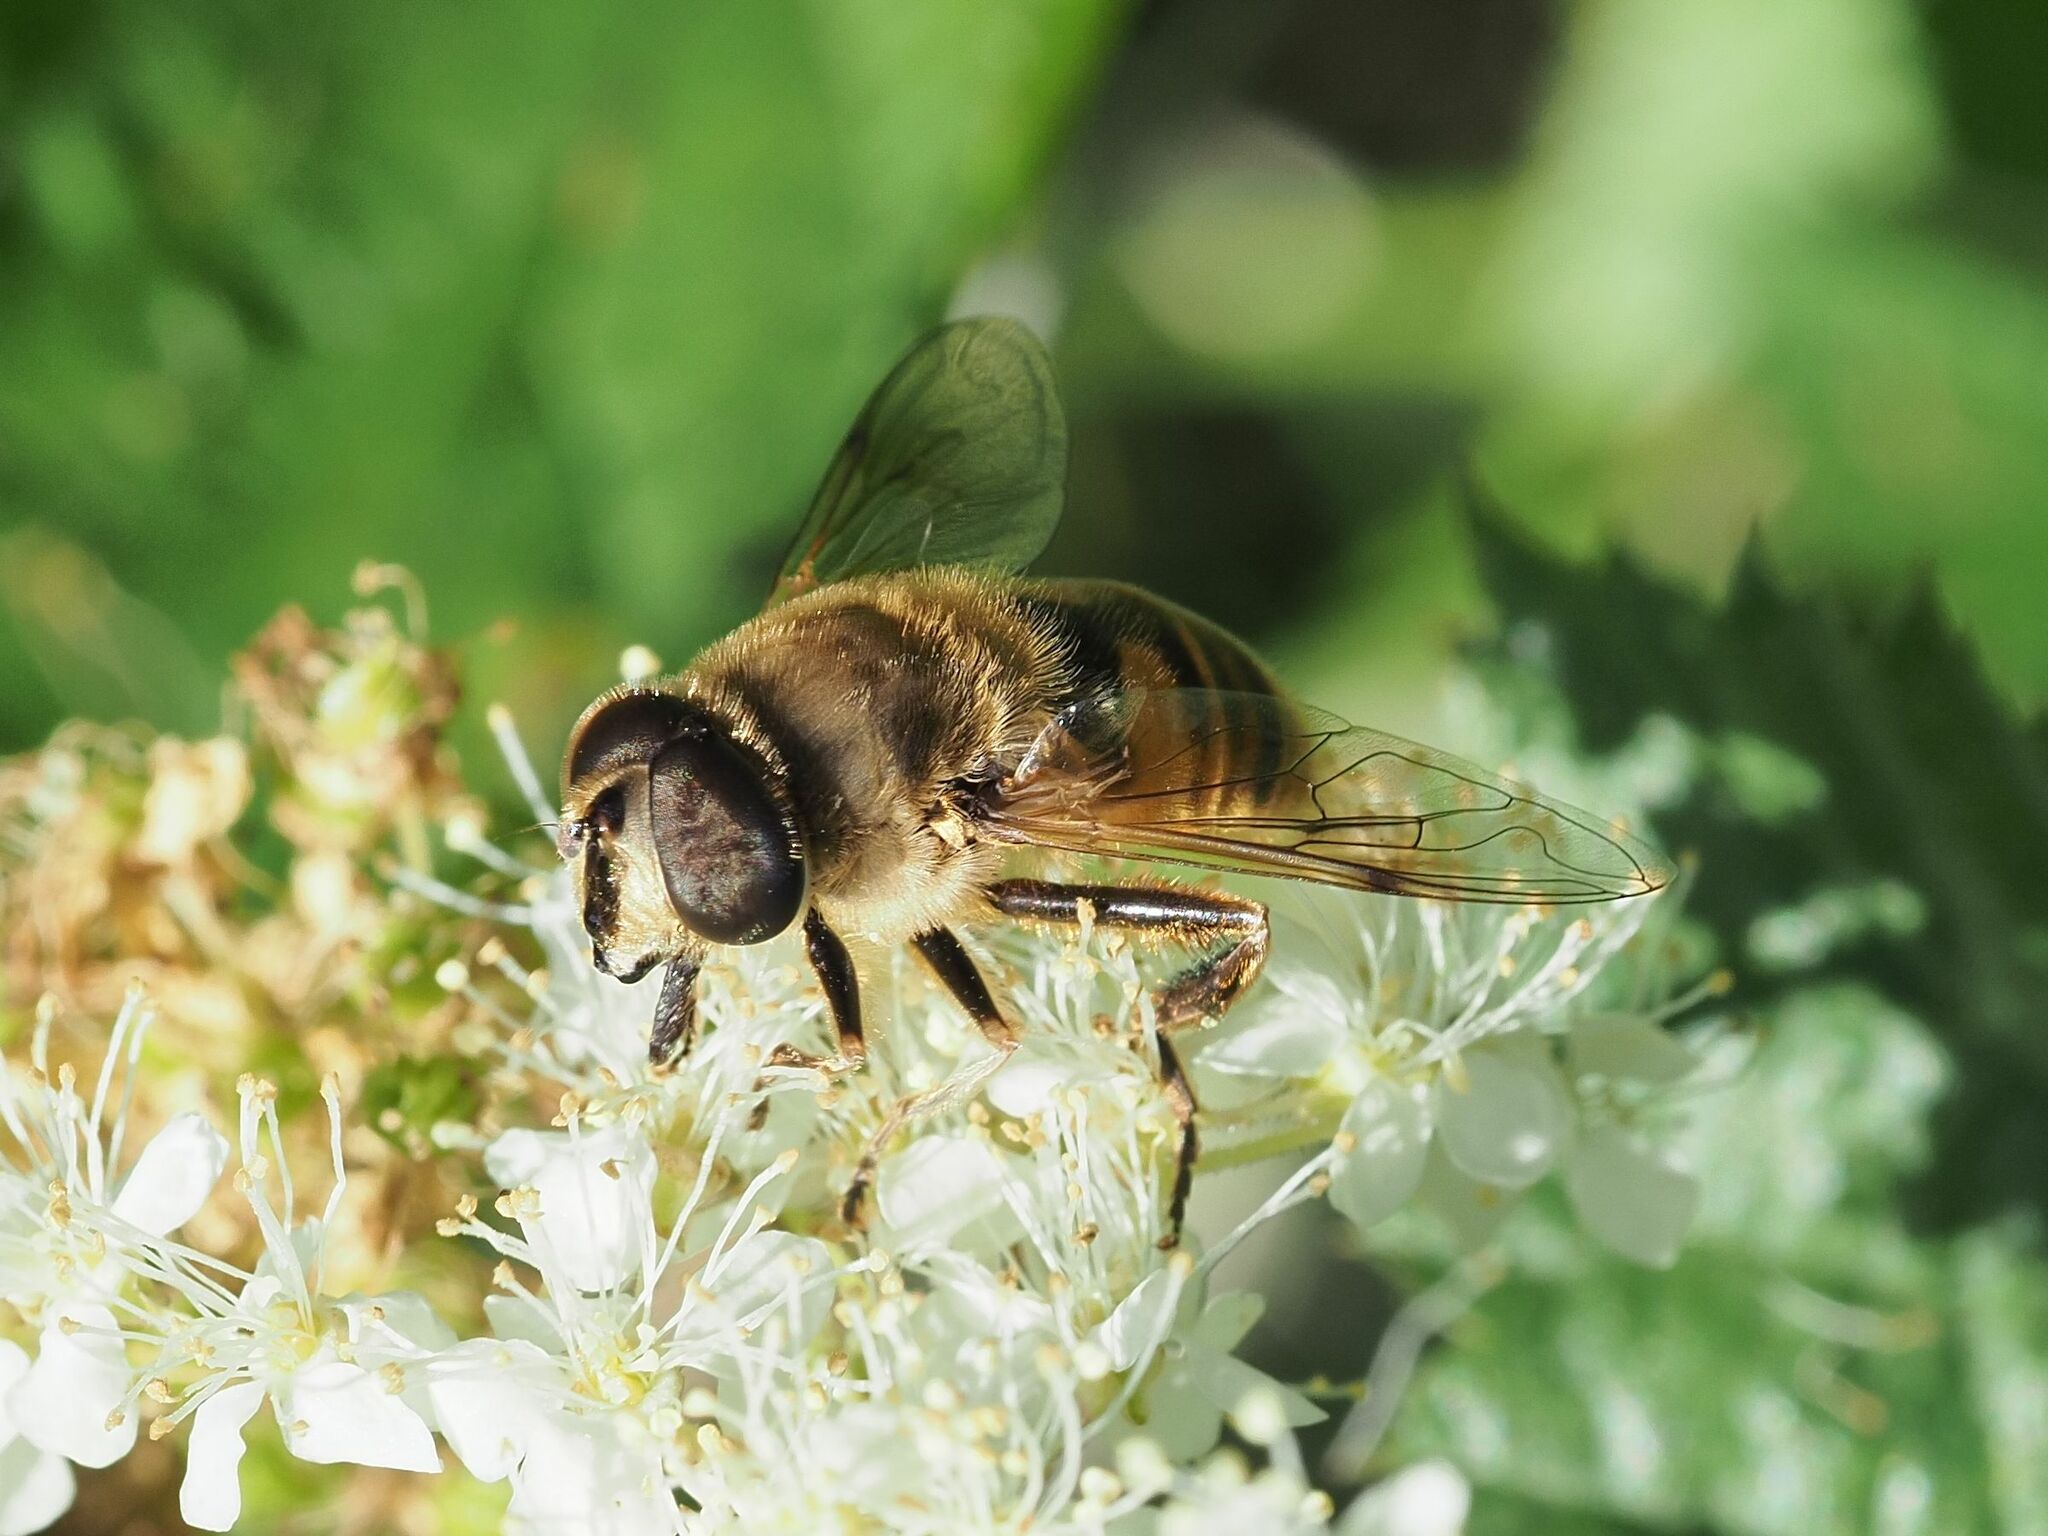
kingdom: Animalia
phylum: Arthropoda
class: Insecta
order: Diptera
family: Syrphidae
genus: Eristalis
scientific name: Eristalis tenax
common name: Drone fly
